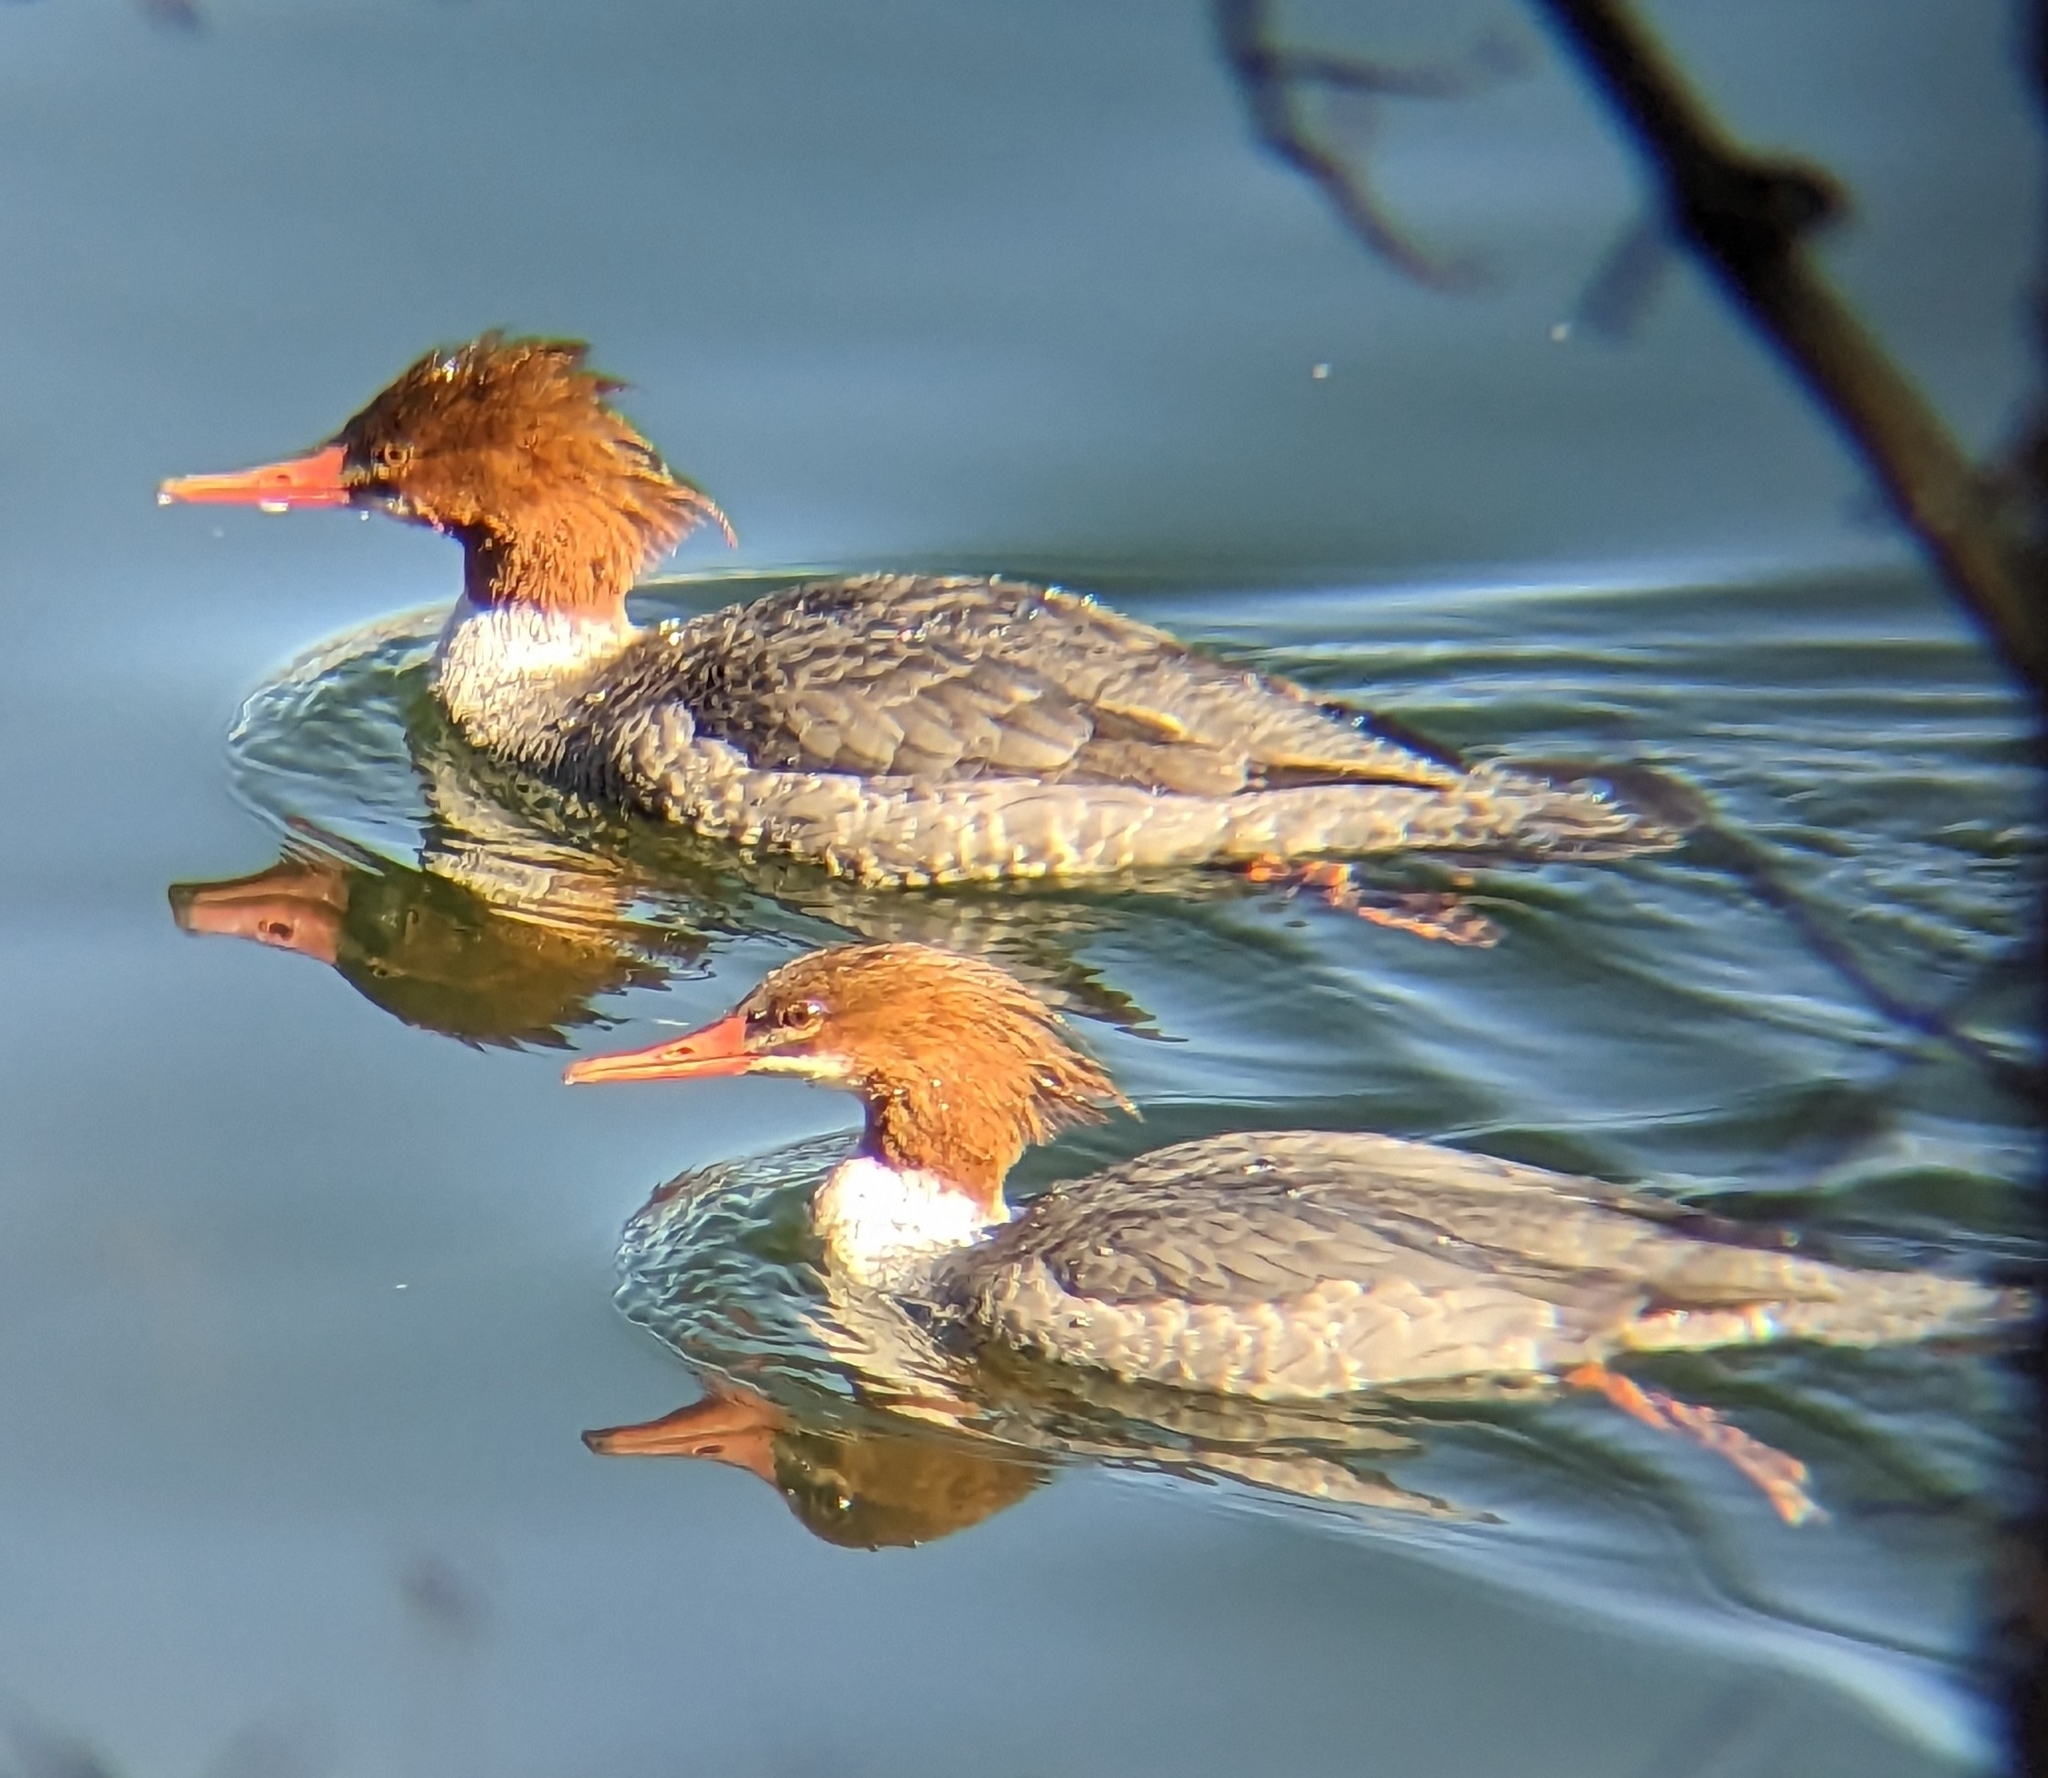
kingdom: Animalia
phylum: Chordata
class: Aves
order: Anseriformes
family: Anatidae
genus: Mergus
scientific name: Mergus merganser
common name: Common merganser
